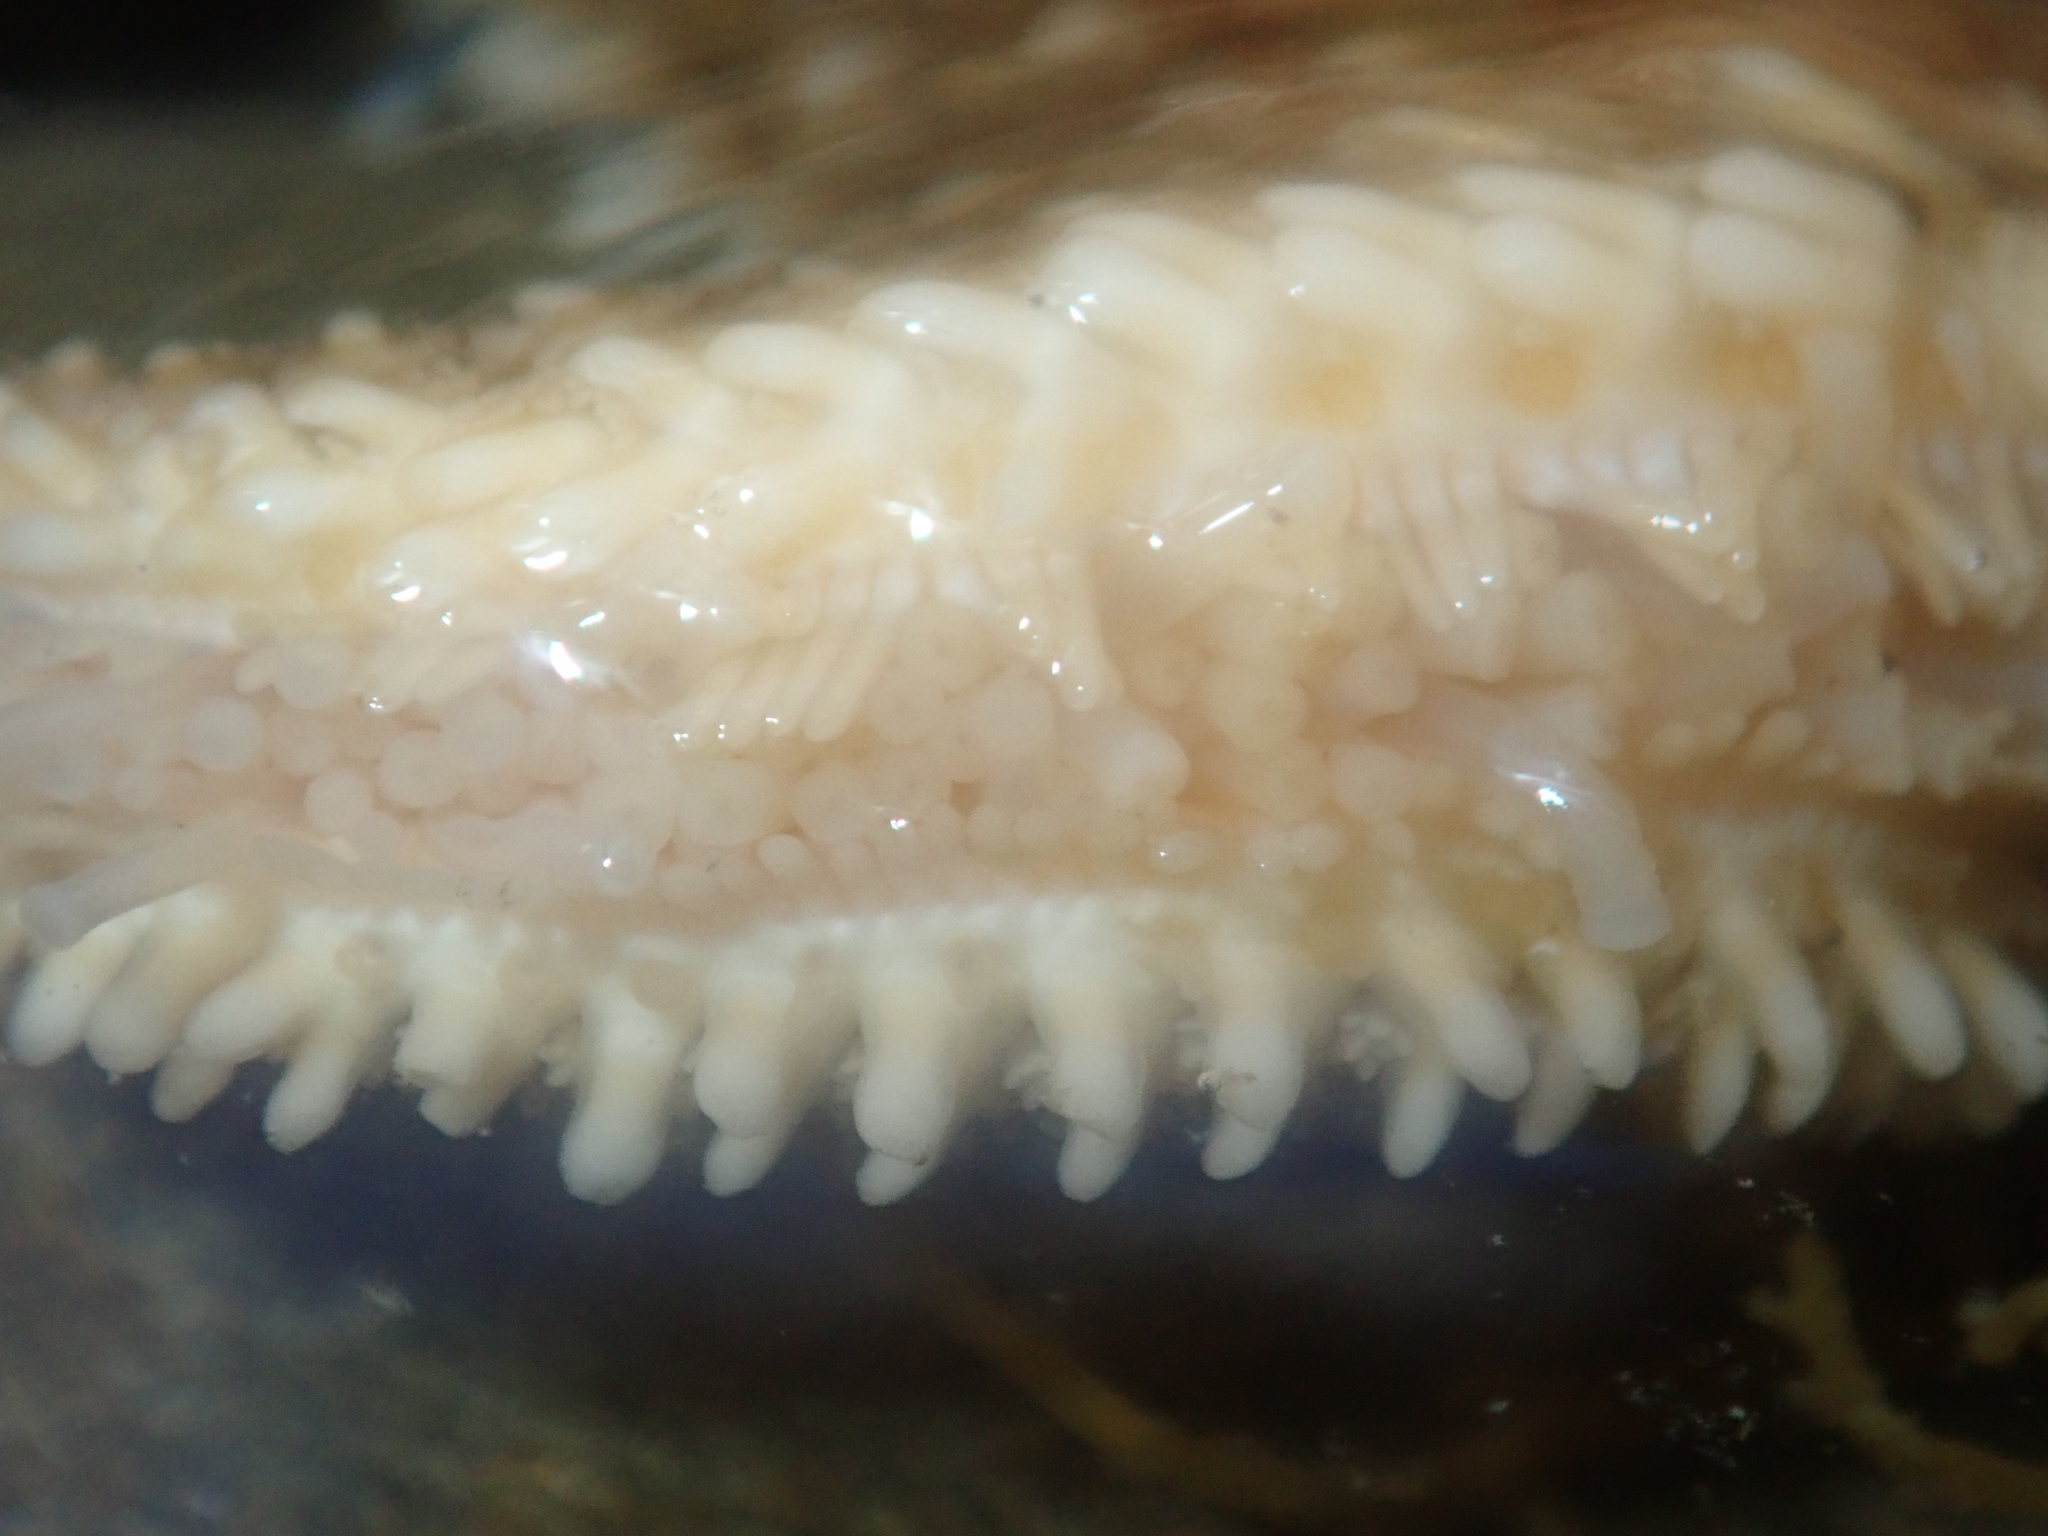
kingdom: Animalia
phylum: Echinodermata
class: Asteroidea
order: Forcipulatida
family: Asteriidae
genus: Coscinasterias
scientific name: Coscinasterias muricata
